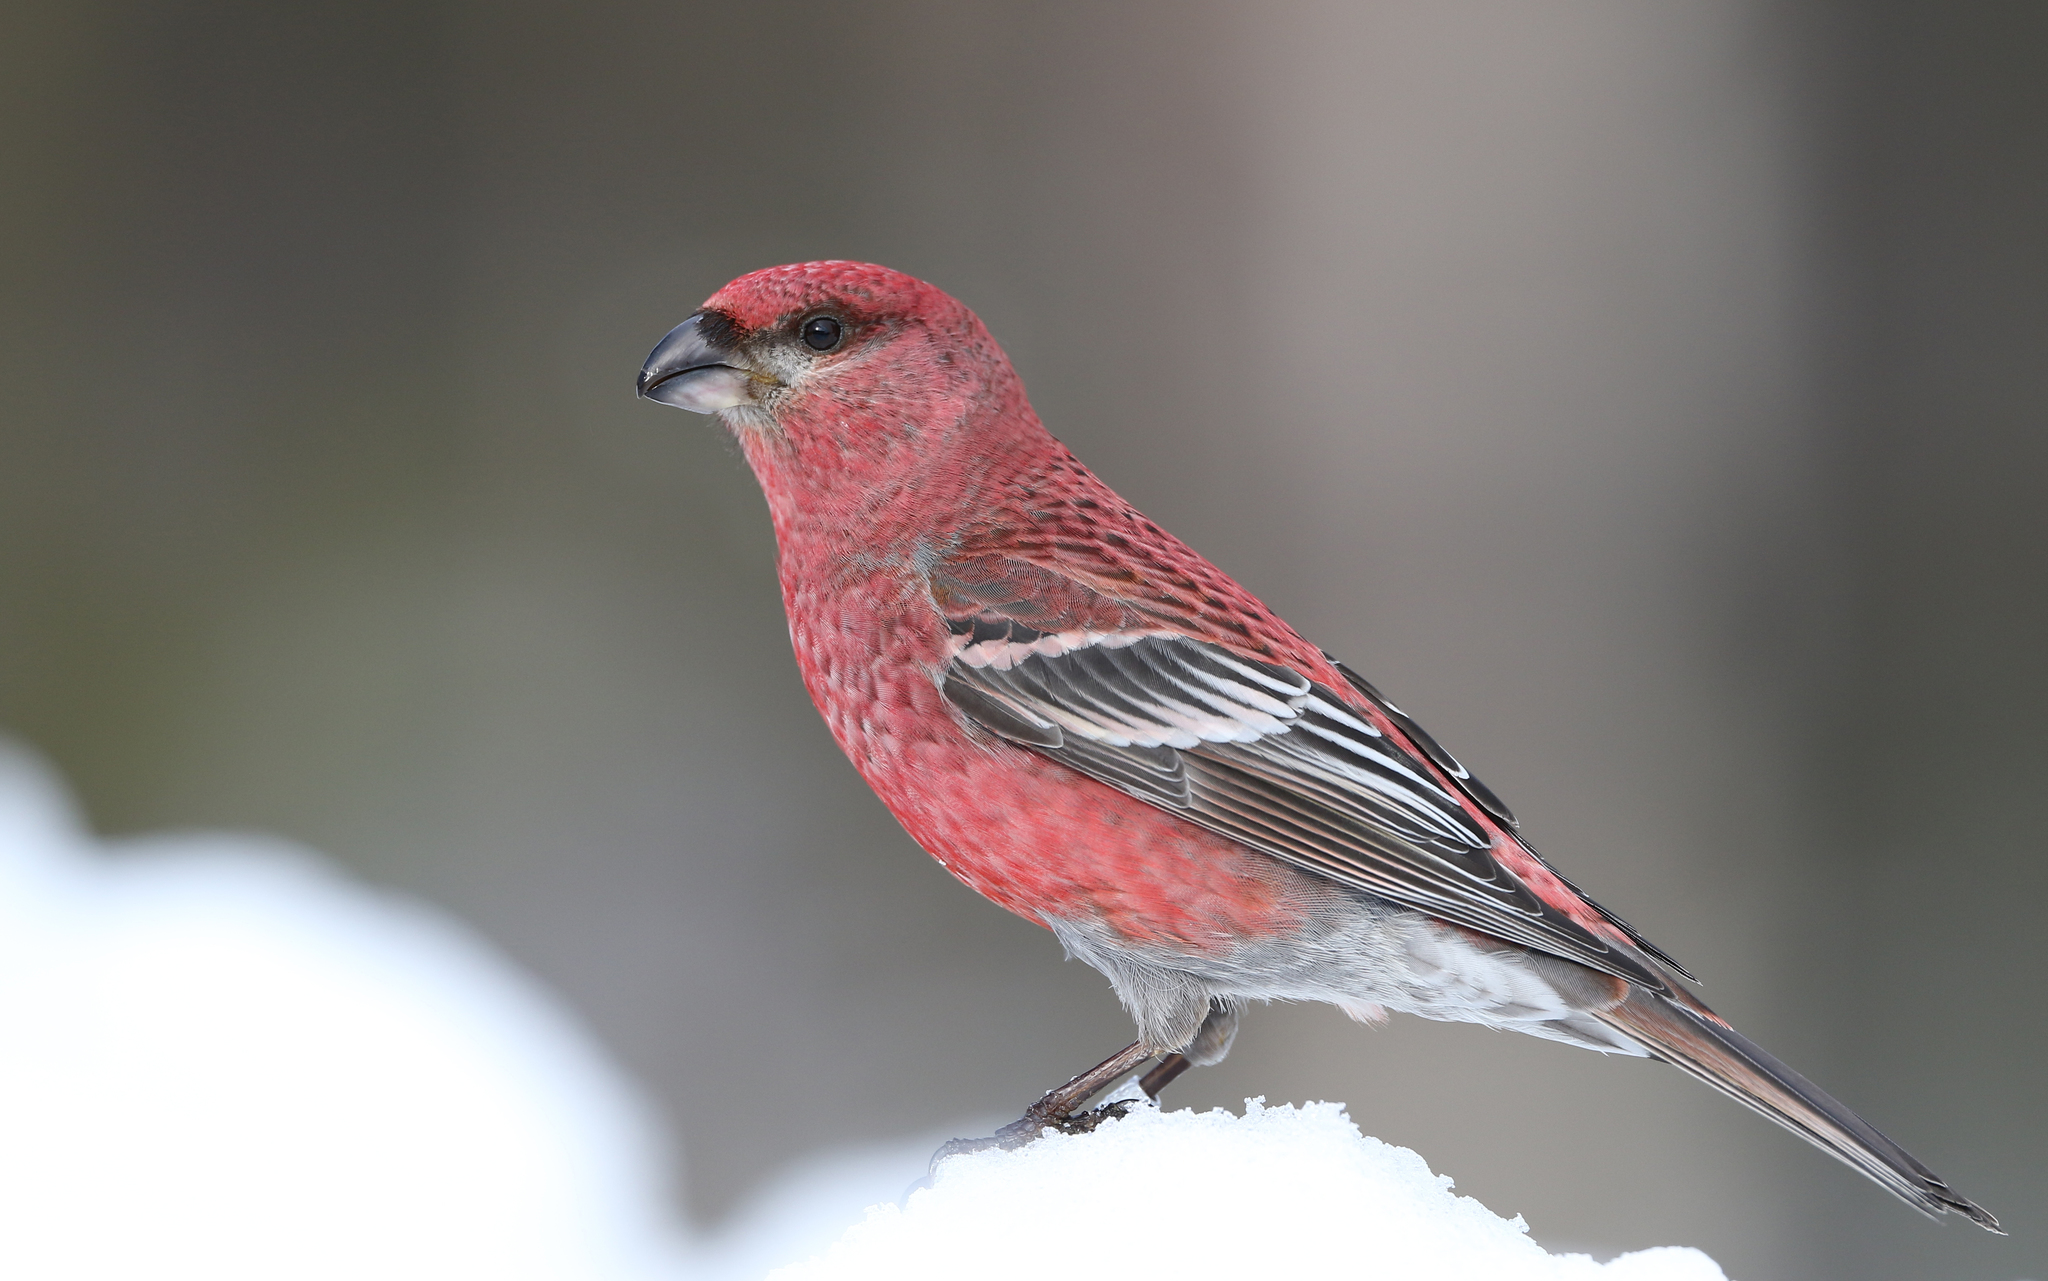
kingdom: Animalia
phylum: Chordata
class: Aves
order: Passeriformes
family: Fringillidae
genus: Pinicola
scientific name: Pinicola enucleator
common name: Pine grosbeak
